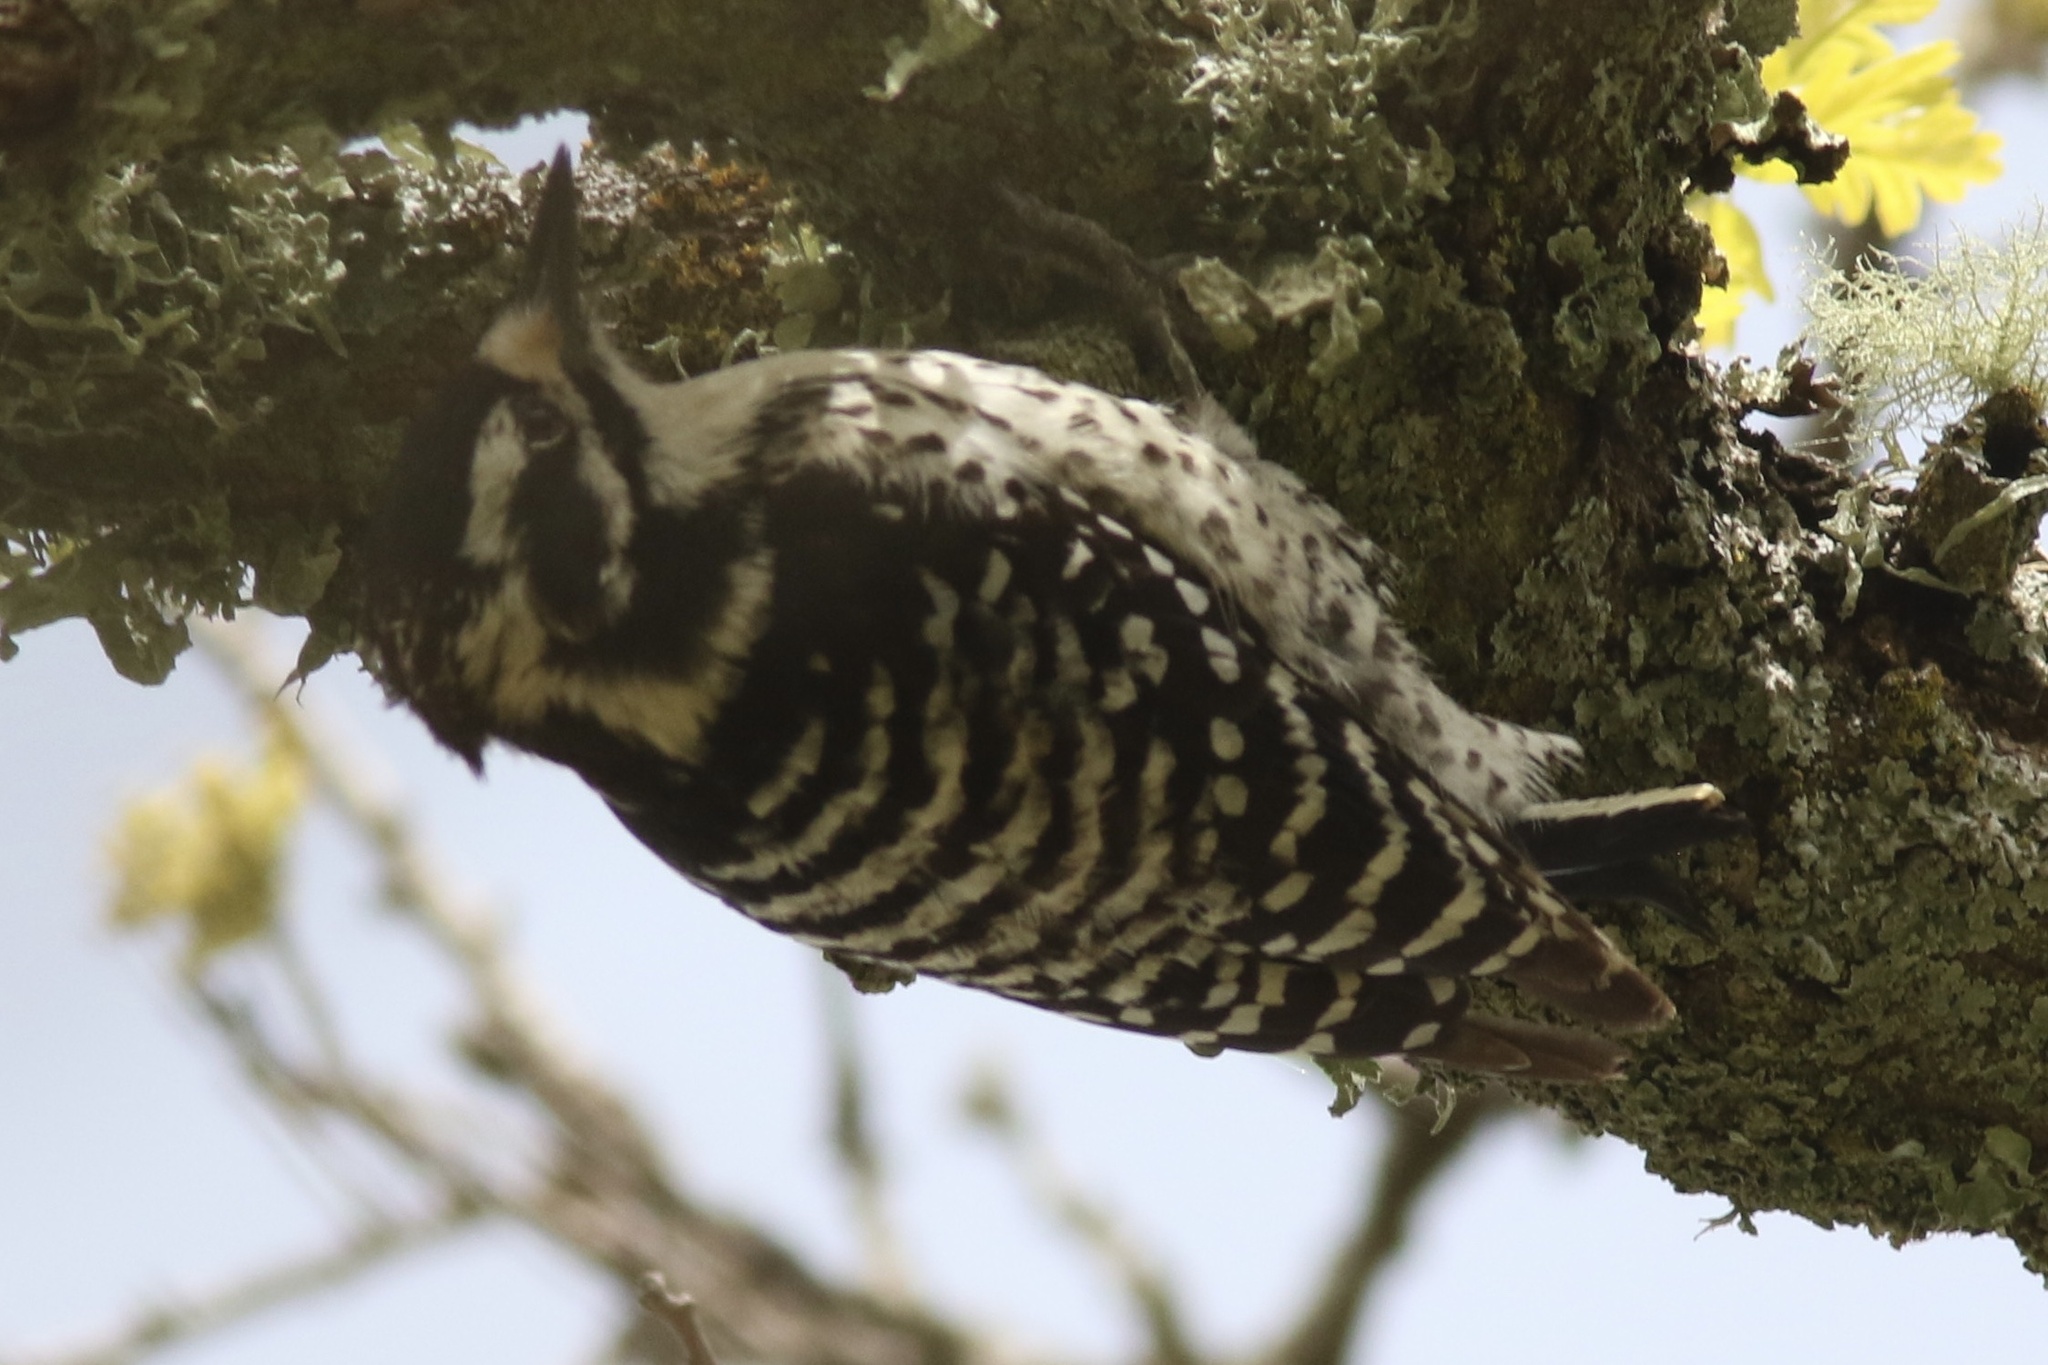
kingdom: Animalia
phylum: Chordata
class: Aves
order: Piciformes
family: Picidae
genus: Dryobates
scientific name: Dryobates nuttallii
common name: Nuttall's woodpecker
